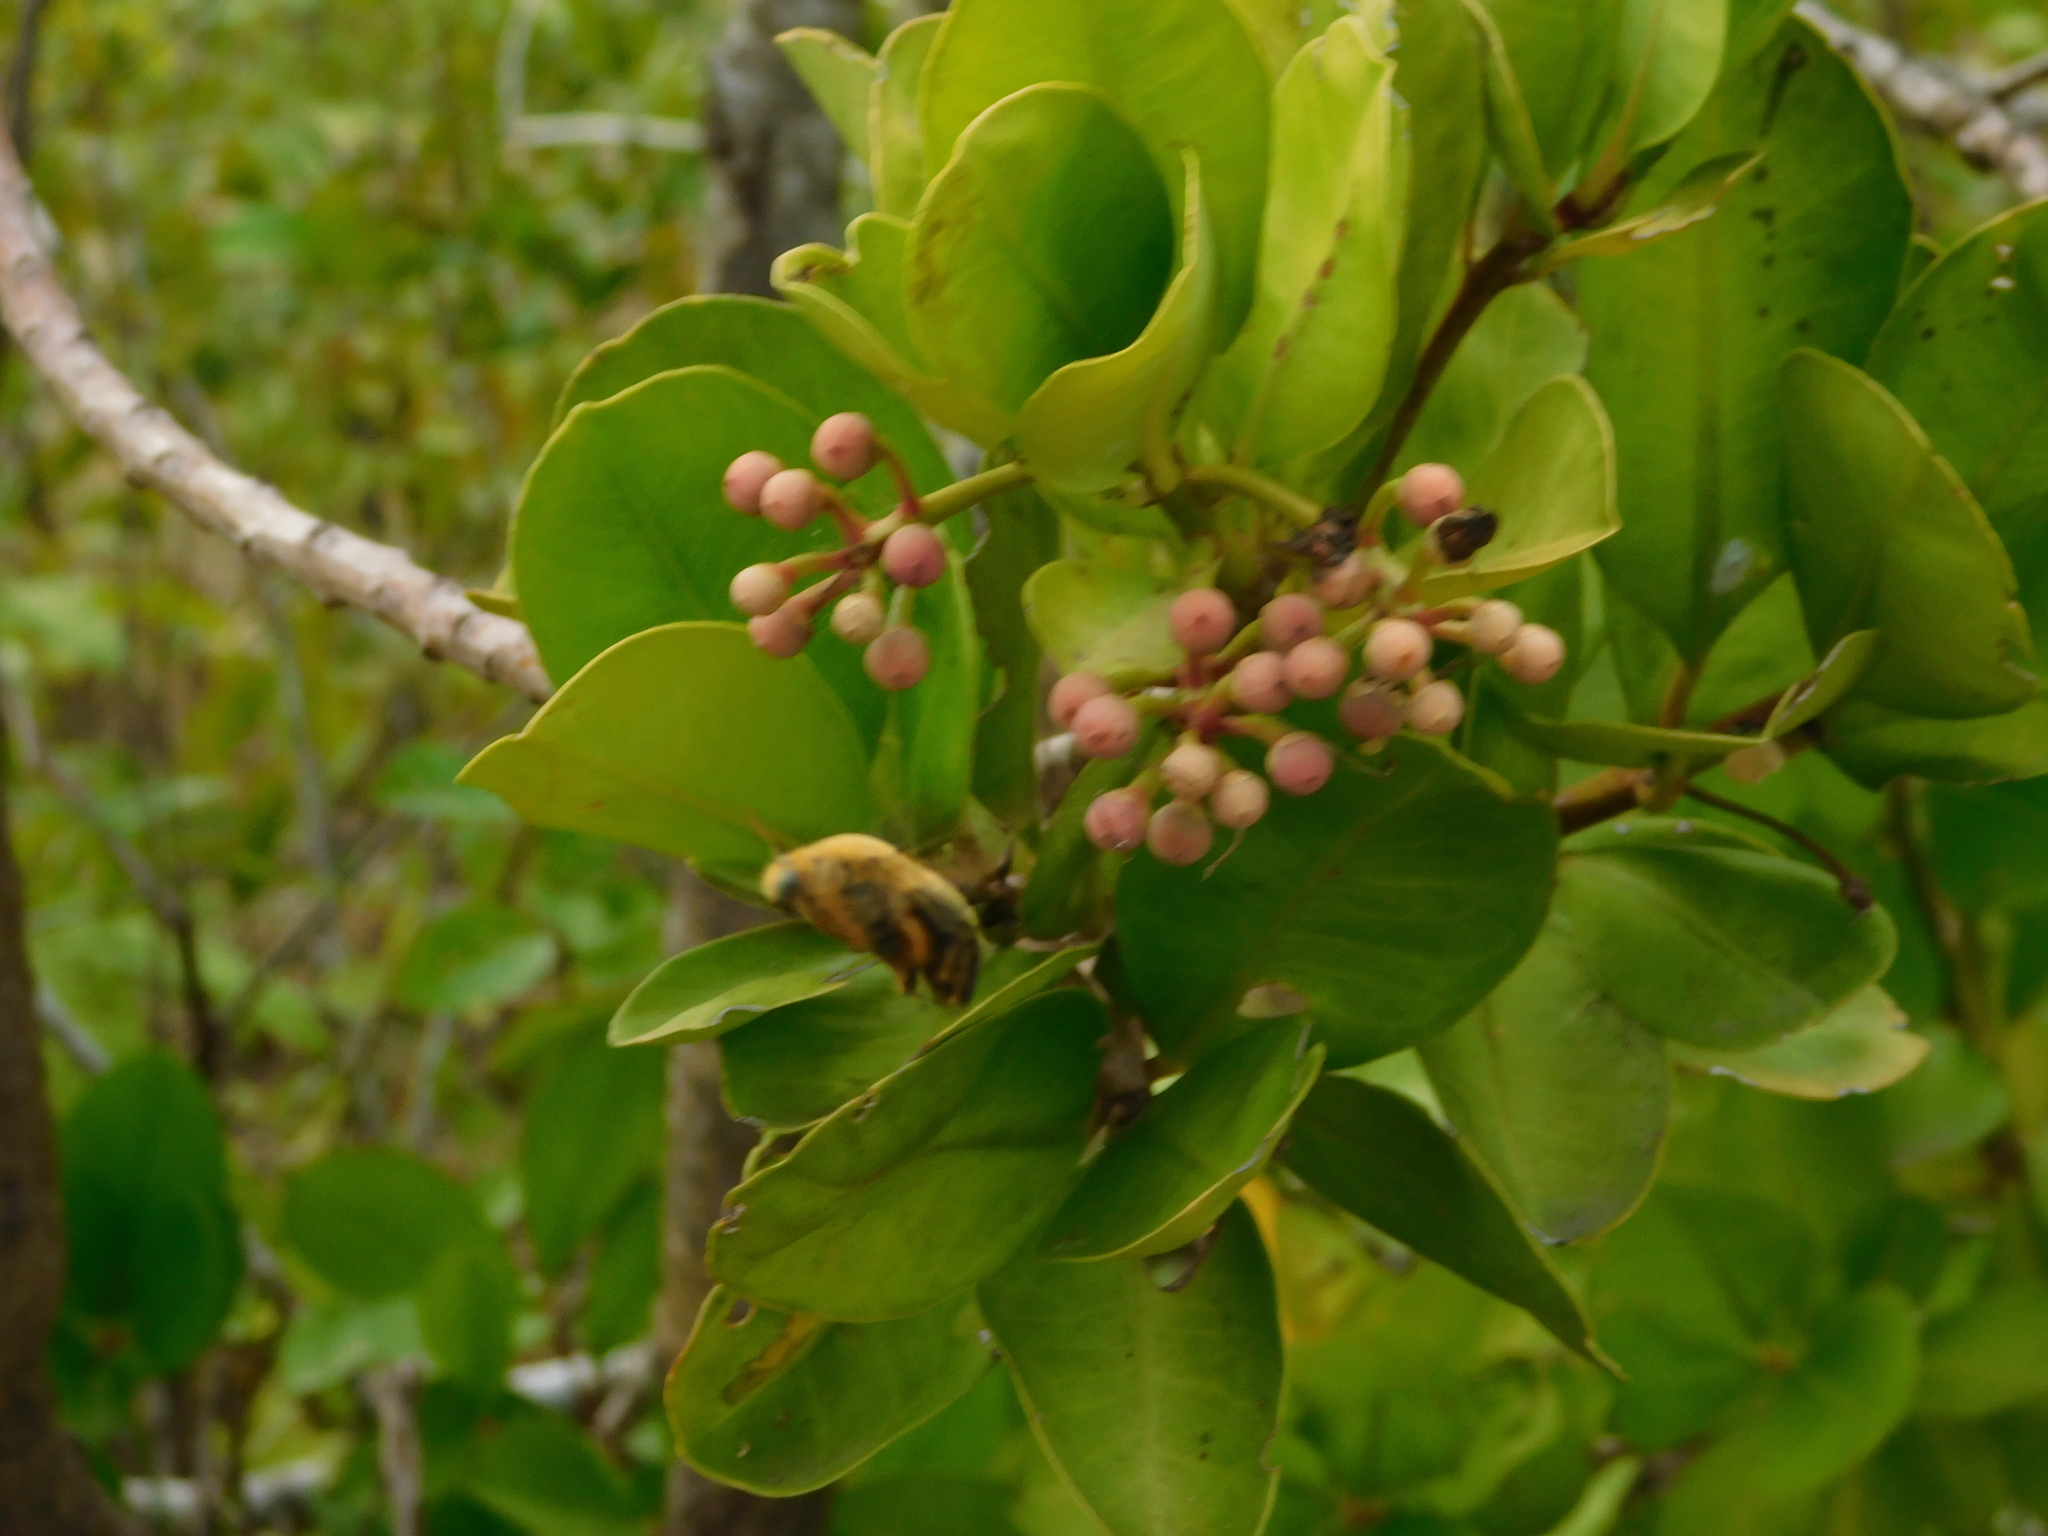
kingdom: Animalia
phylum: Arthropoda
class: Insecta
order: Hymenoptera
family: Apidae
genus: Xylocopa
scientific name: Xylocopa aestuans
